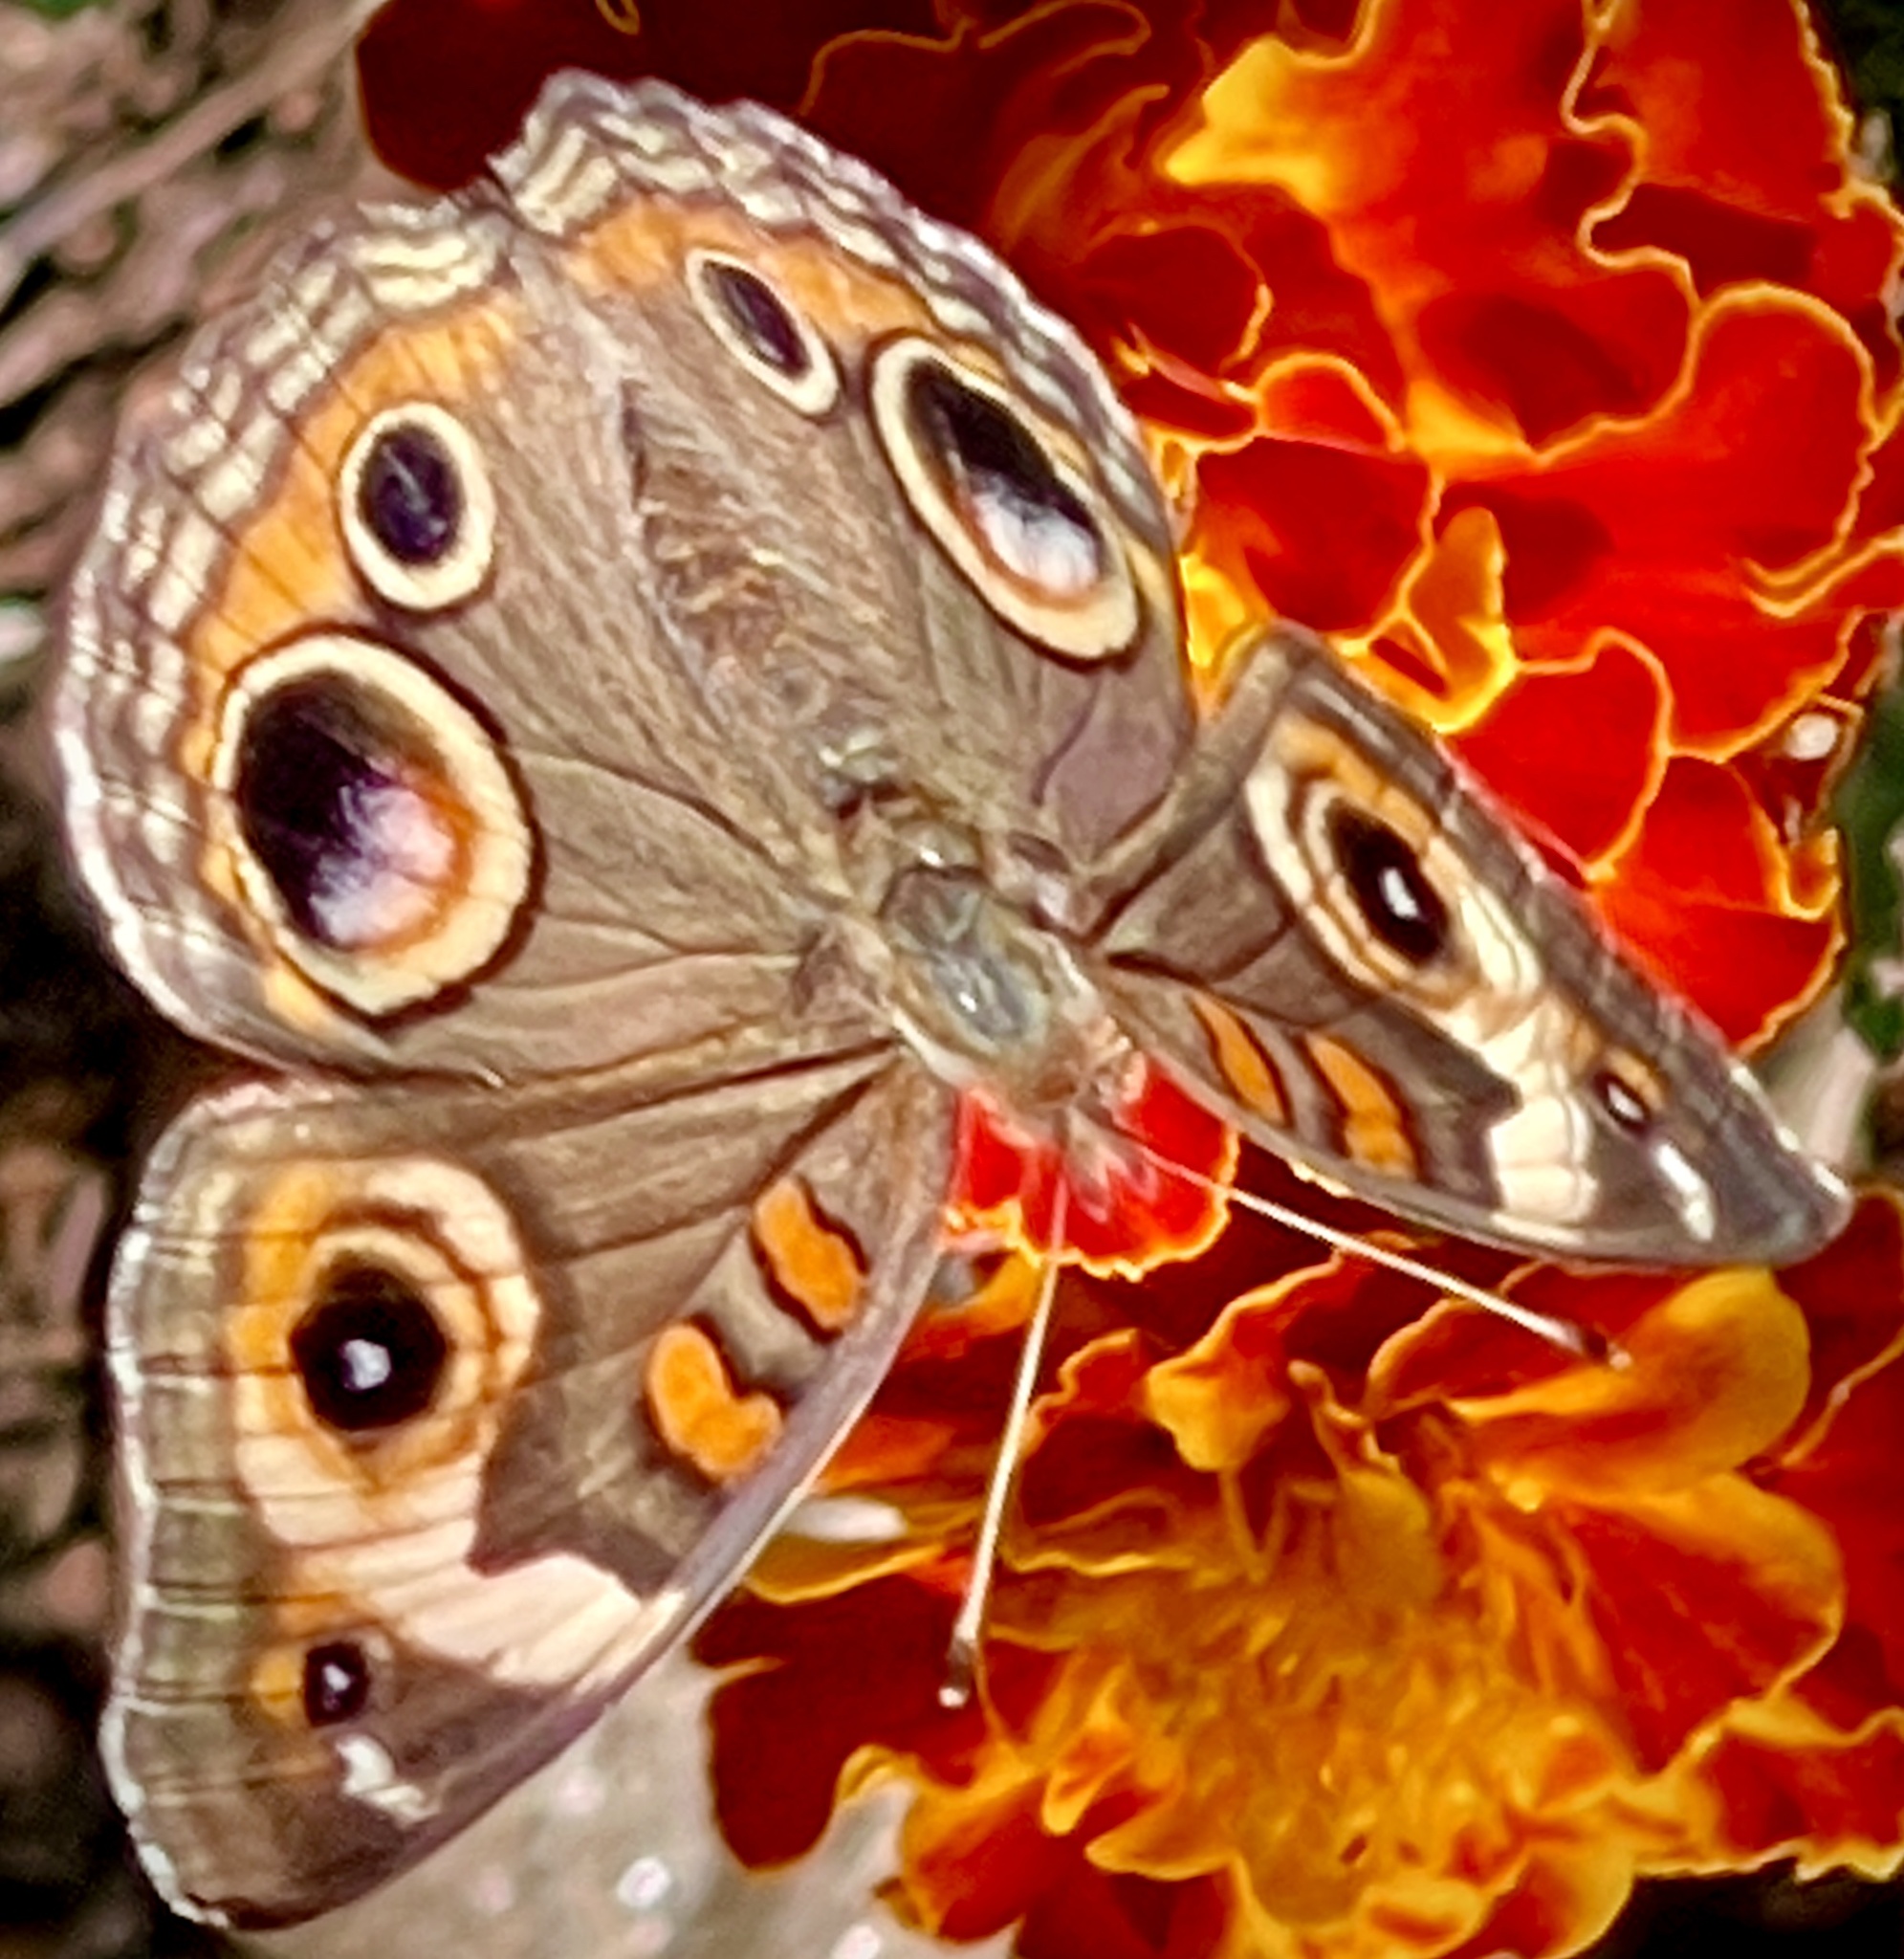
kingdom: Animalia
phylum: Arthropoda
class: Insecta
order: Lepidoptera
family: Nymphalidae
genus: Junonia
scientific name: Junonia coenia
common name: Common buckeye
